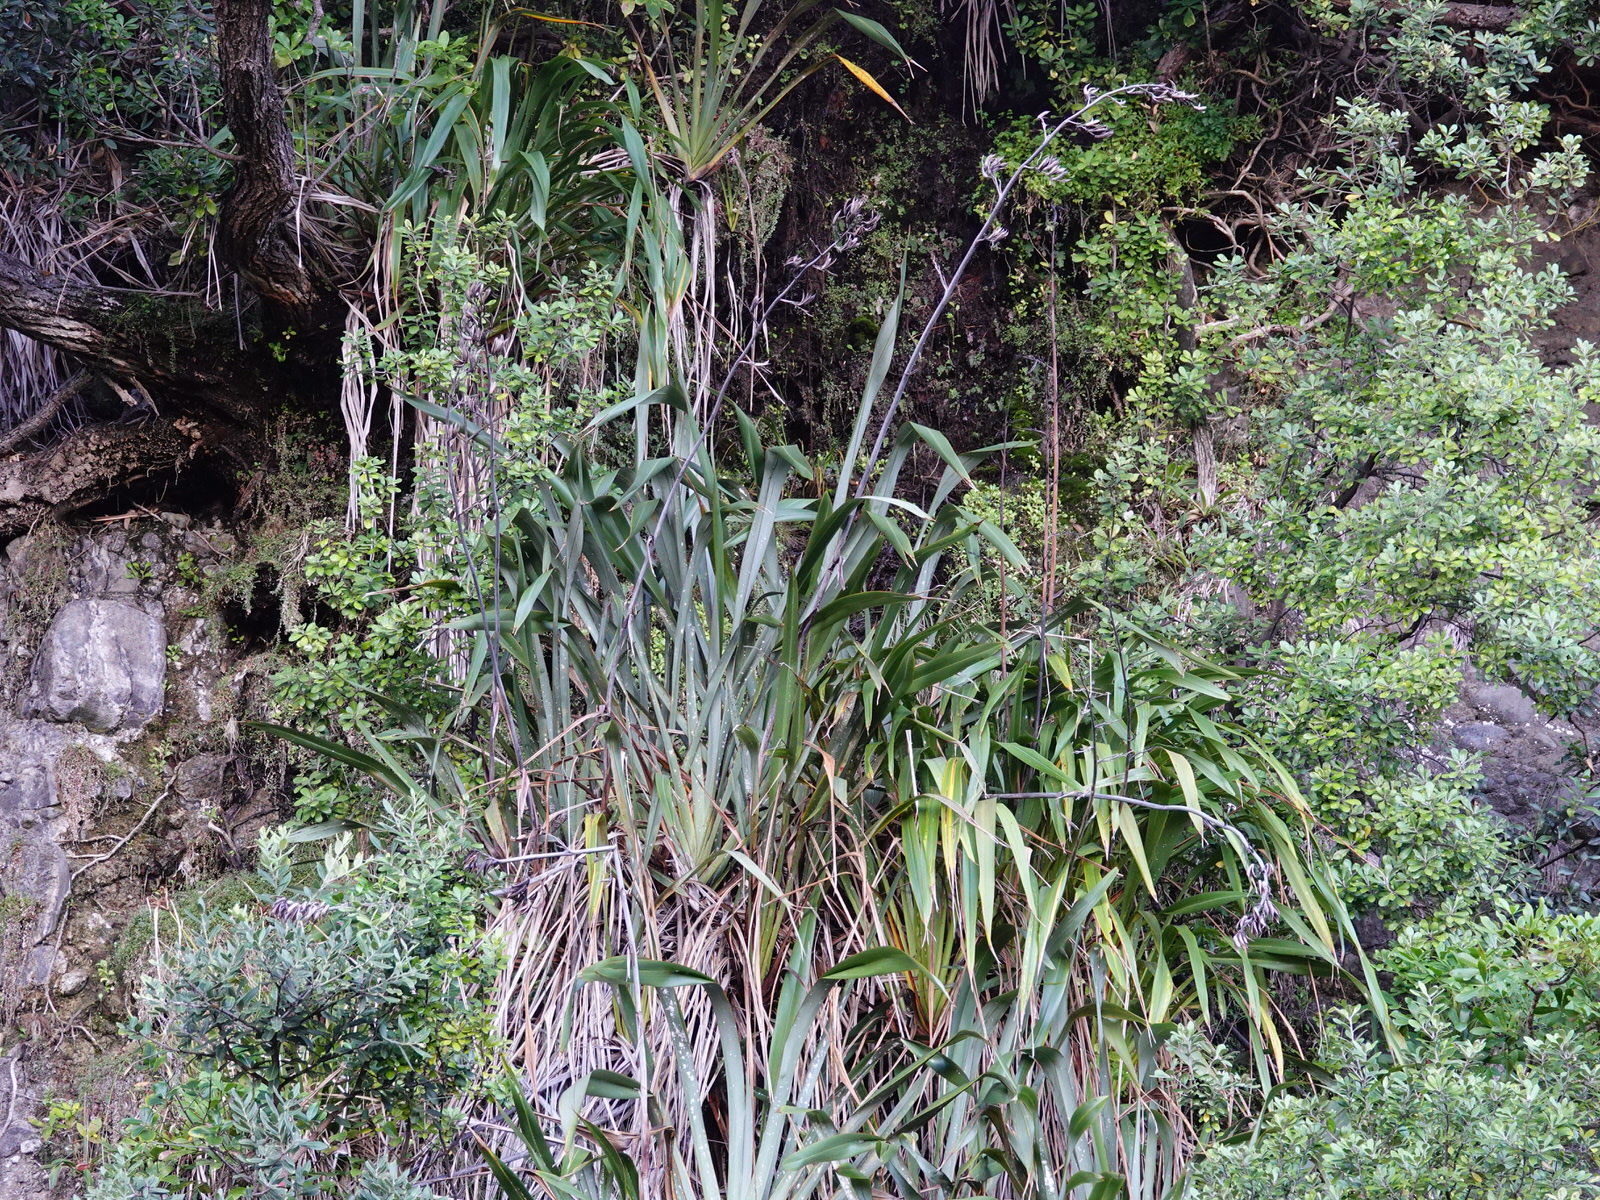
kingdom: Plantae
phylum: Tracheophyta
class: Liliopsida
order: Asparagales
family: Asphodelaceae
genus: Phormium
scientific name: Phormium tenax
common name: New zealand flax
